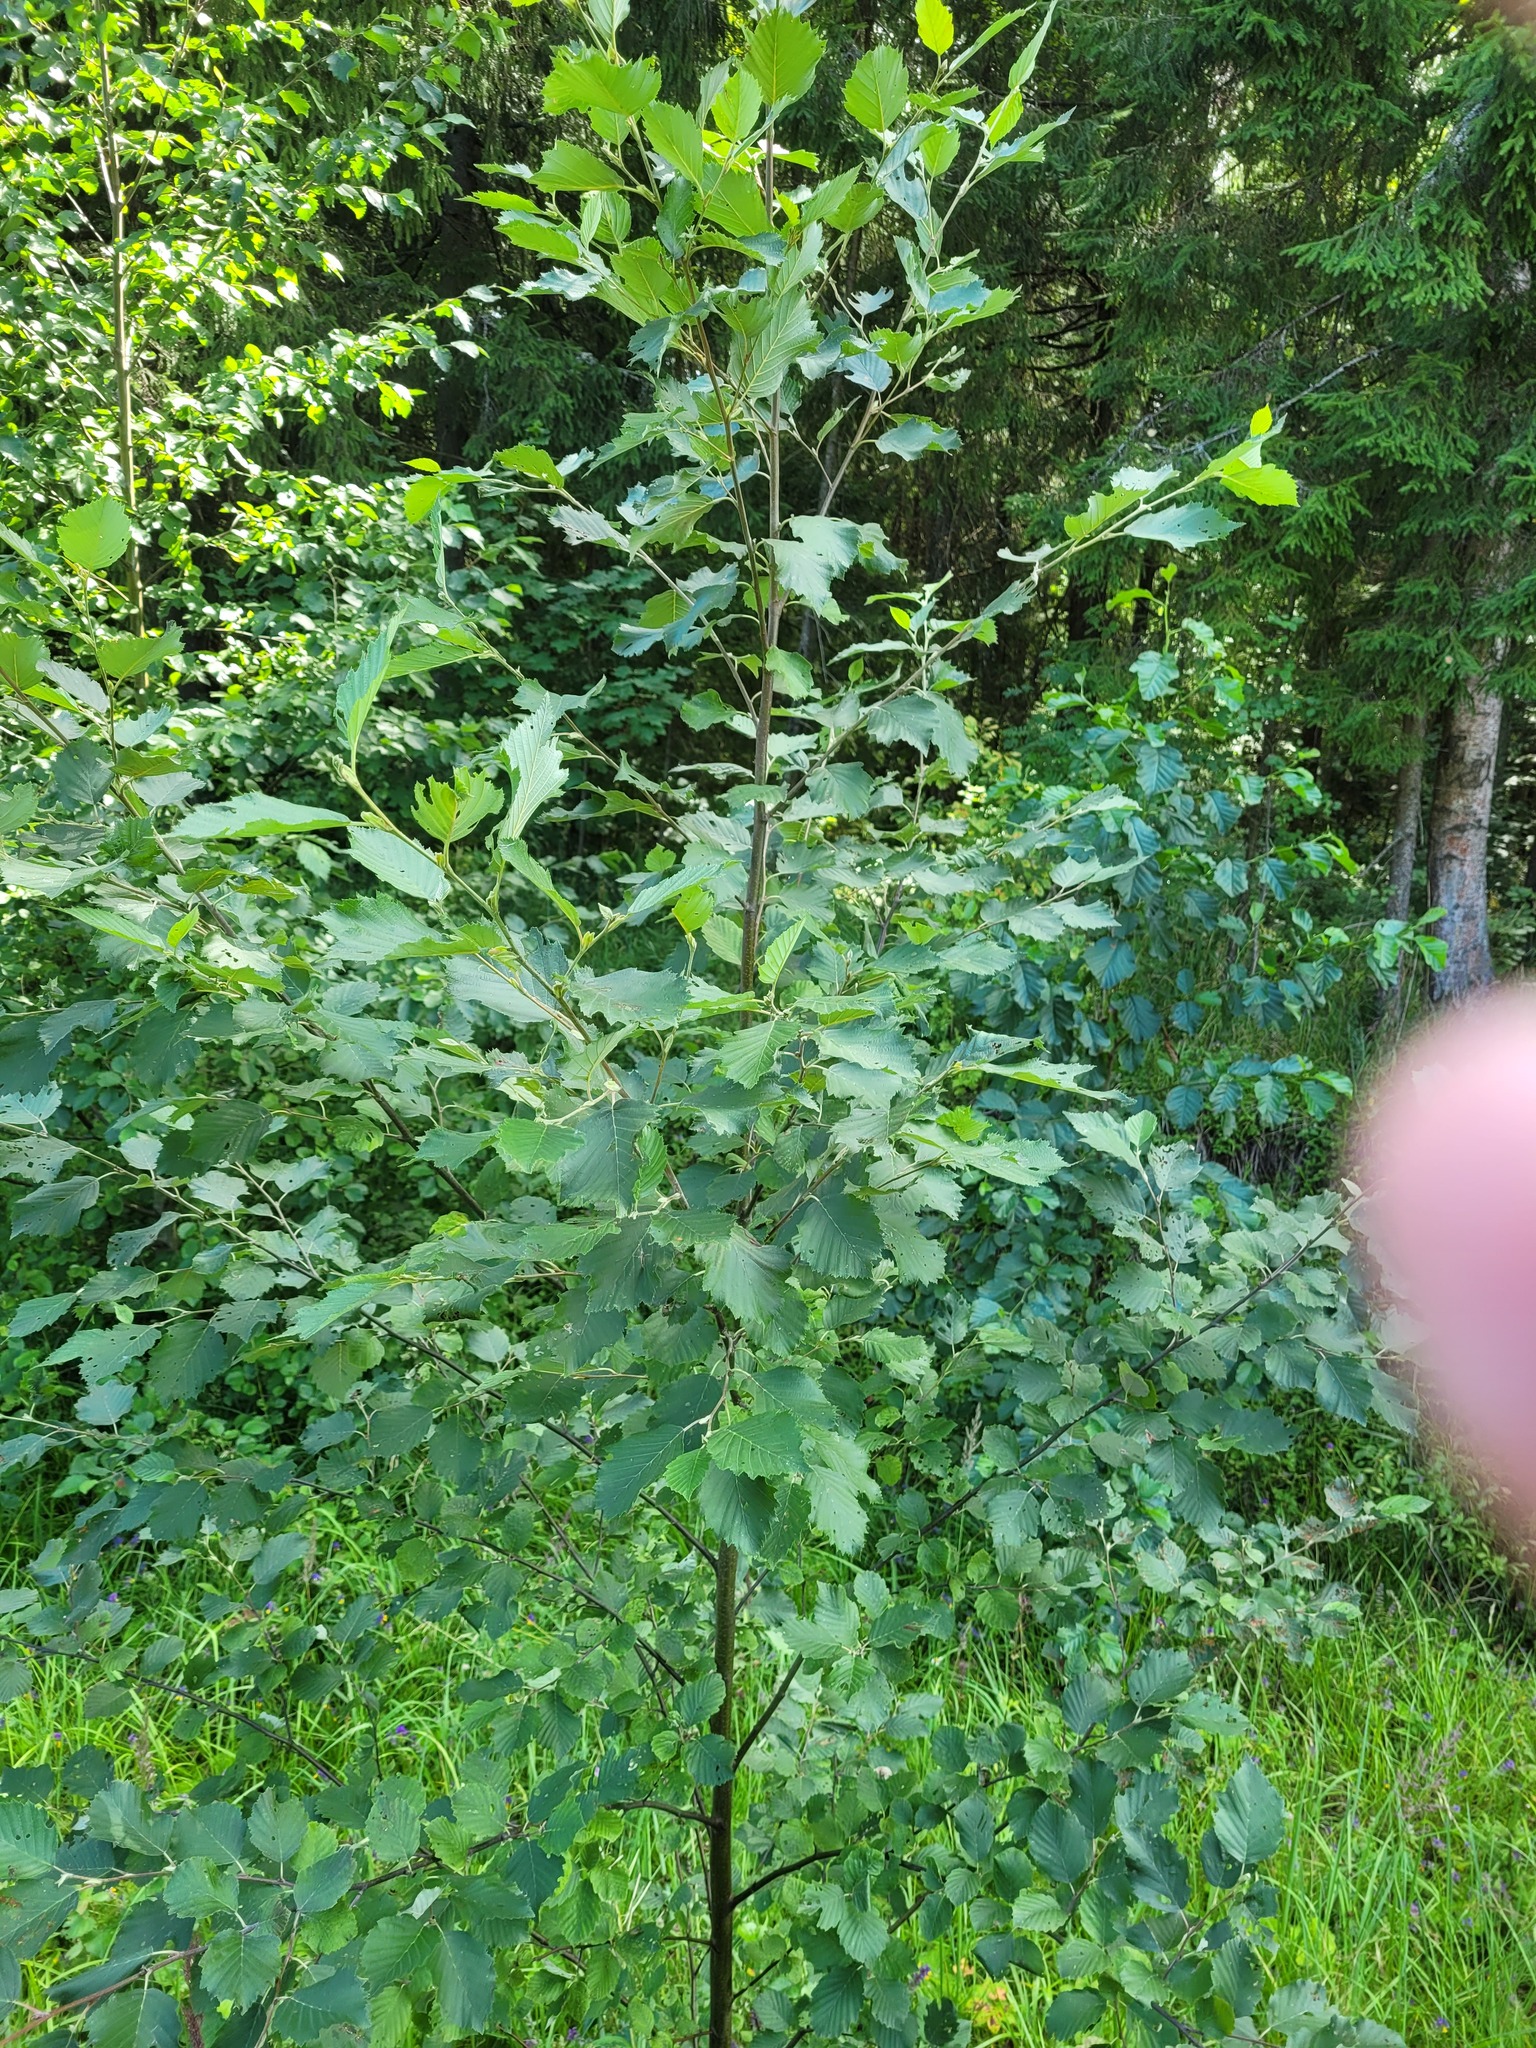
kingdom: Plantae
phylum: Tracheophyta
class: Magnoliopsida
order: Fagales
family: Betulaceae
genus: Alnus
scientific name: Alnus incana
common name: Grey alder
